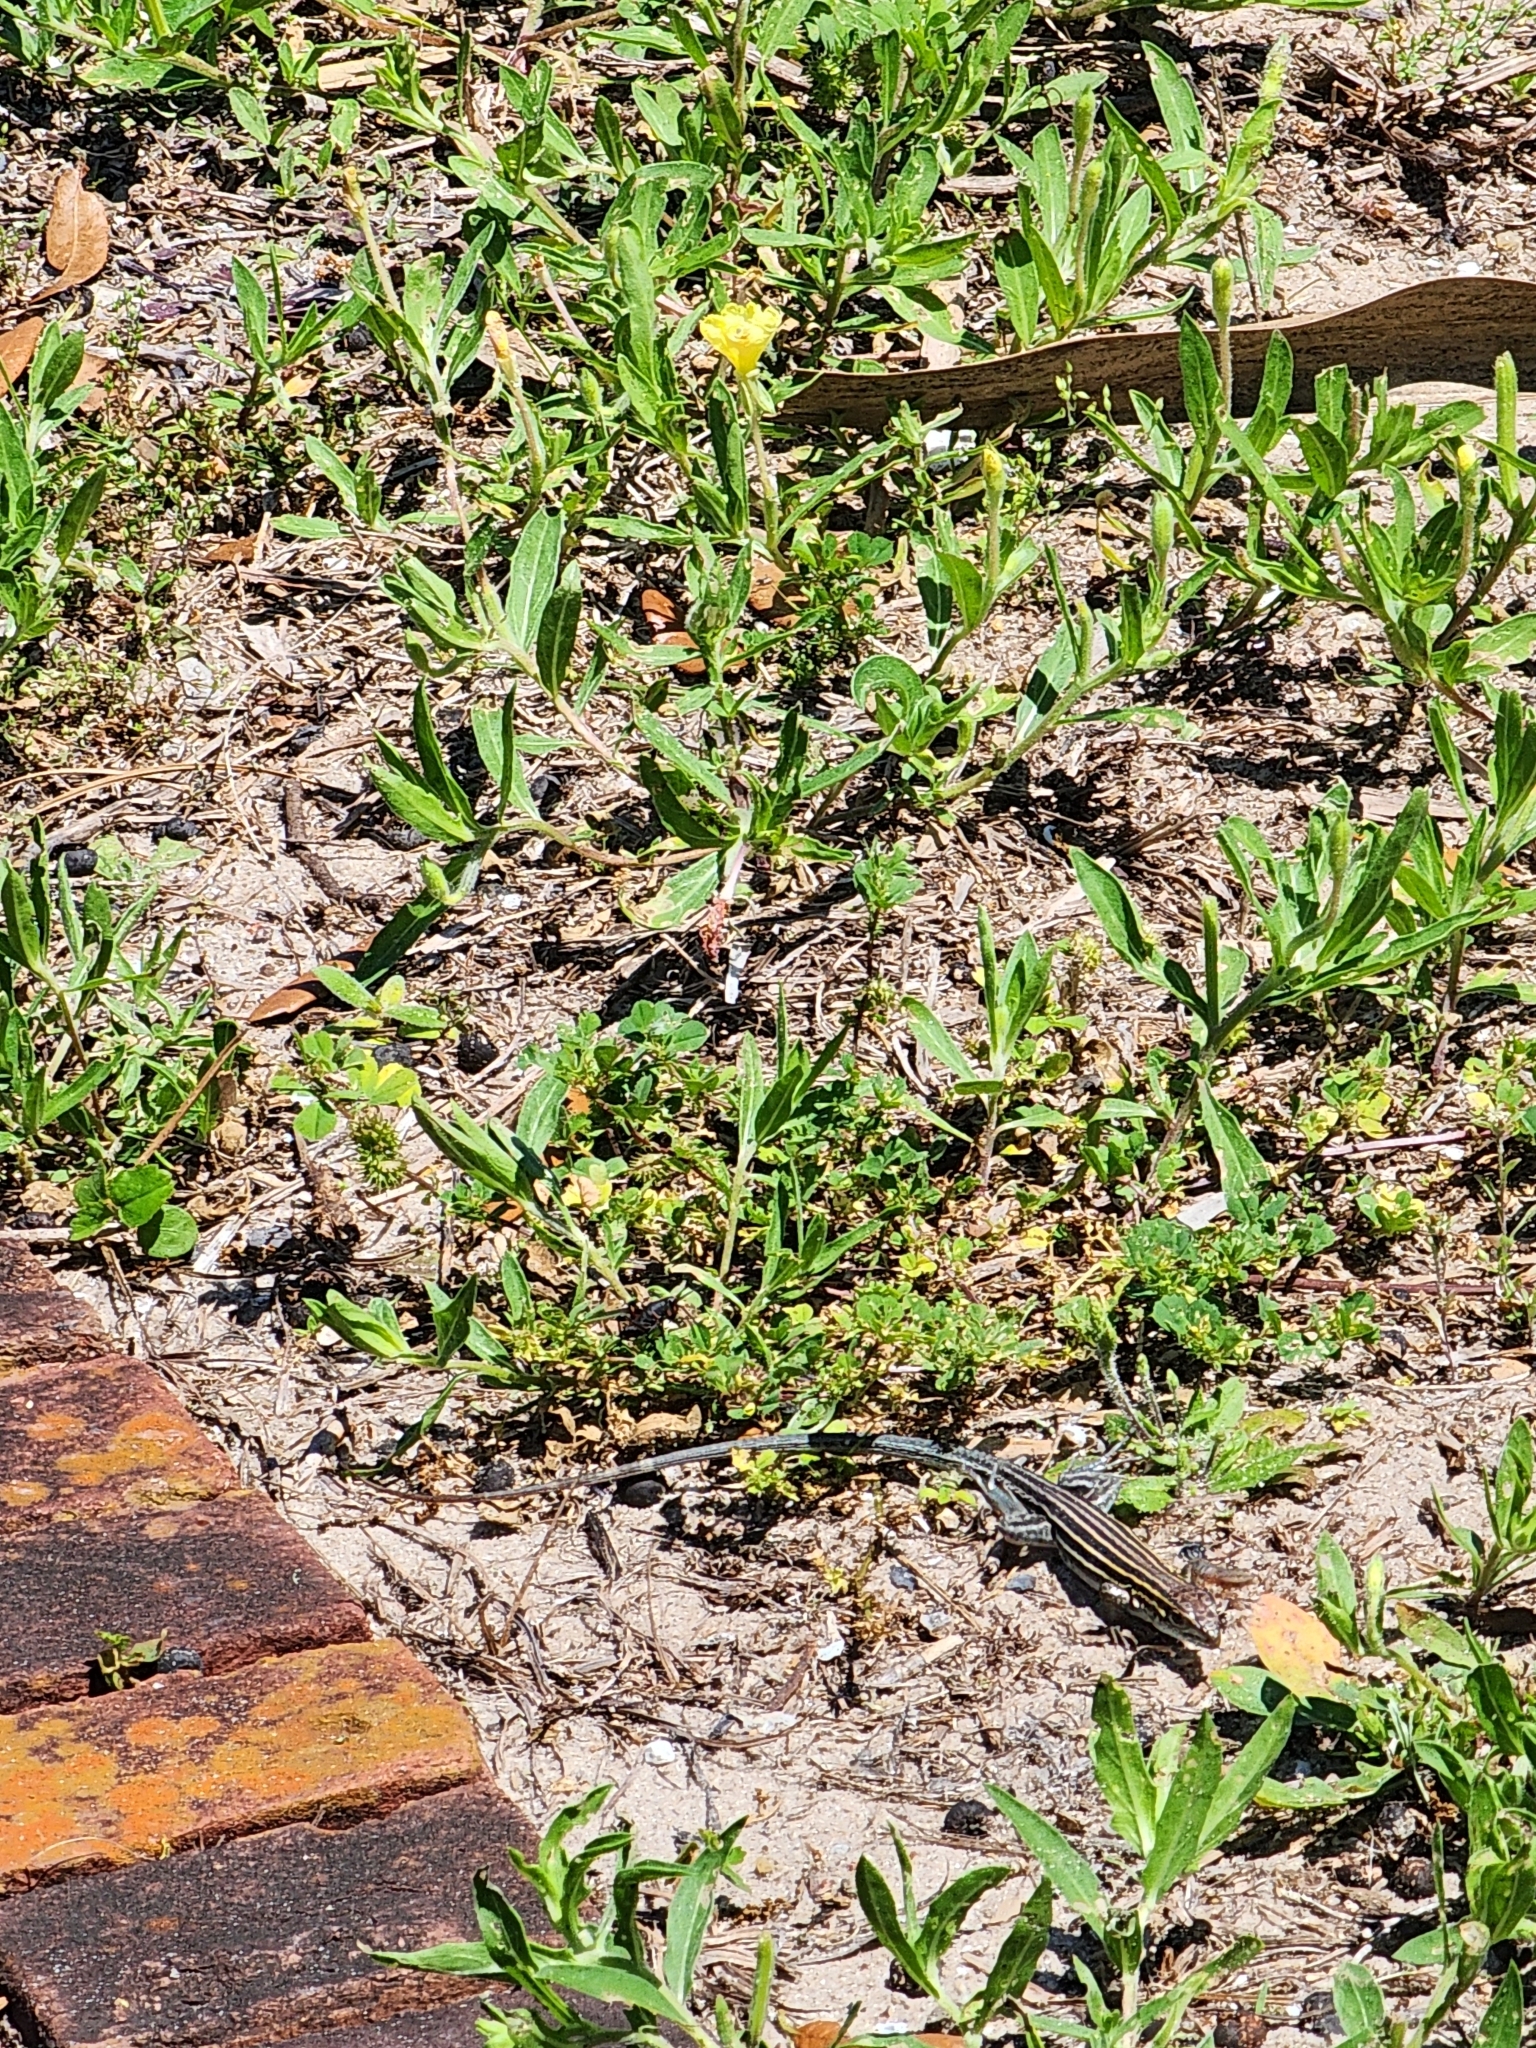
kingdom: Animalia
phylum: Chordata
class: Squamata
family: Teiidae
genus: Aspidoscelis
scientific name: Aspidoscelis sexlineatus
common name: Six-lined racerunner
